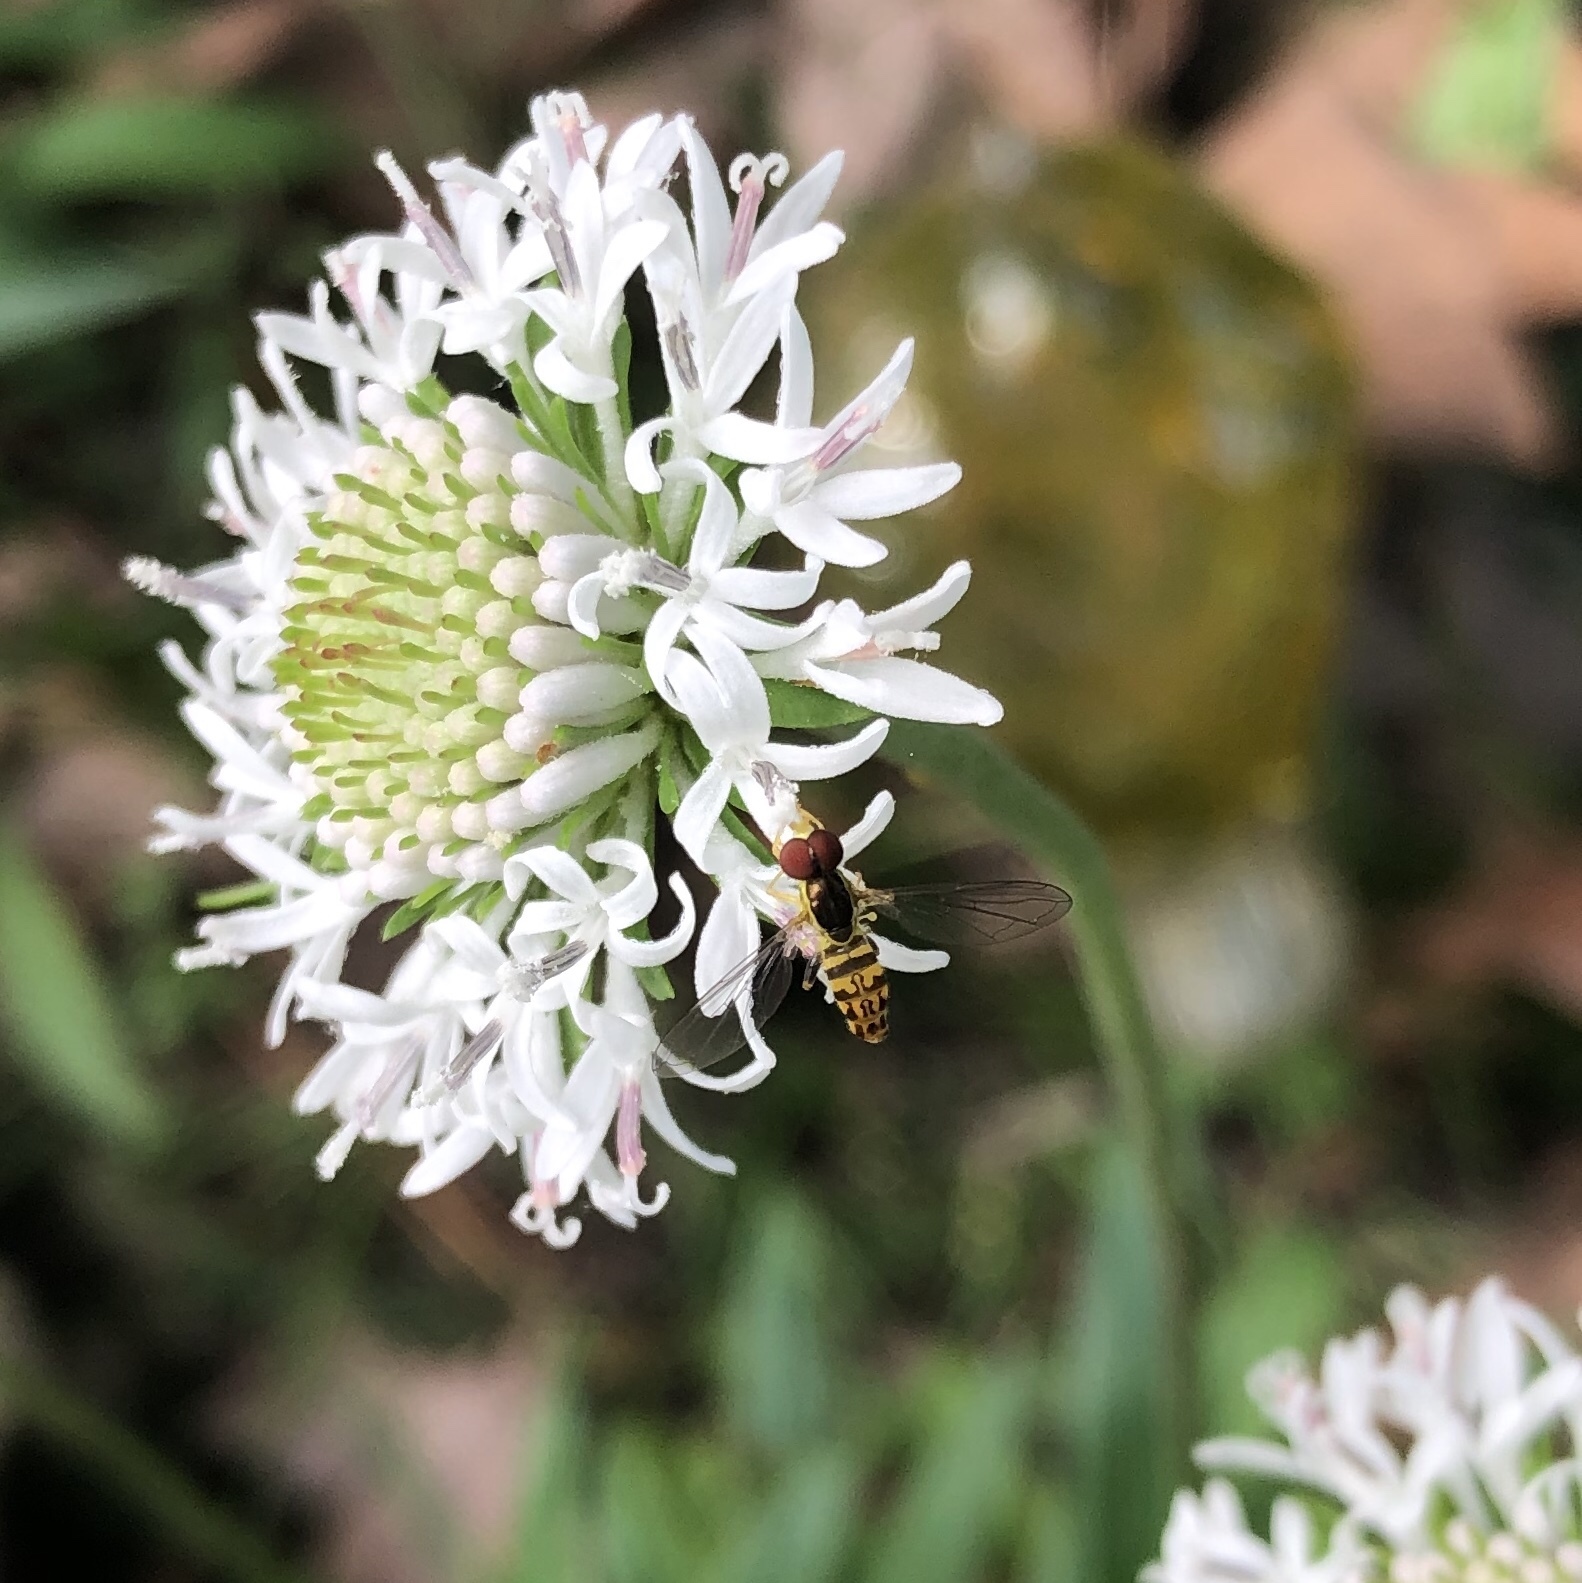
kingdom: Animalia
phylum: Arthropoda
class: Insecta
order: Diptera
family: Syrphidae
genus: Toxomerus
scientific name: Toxomerus geminatus
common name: Eastern calligrapher
